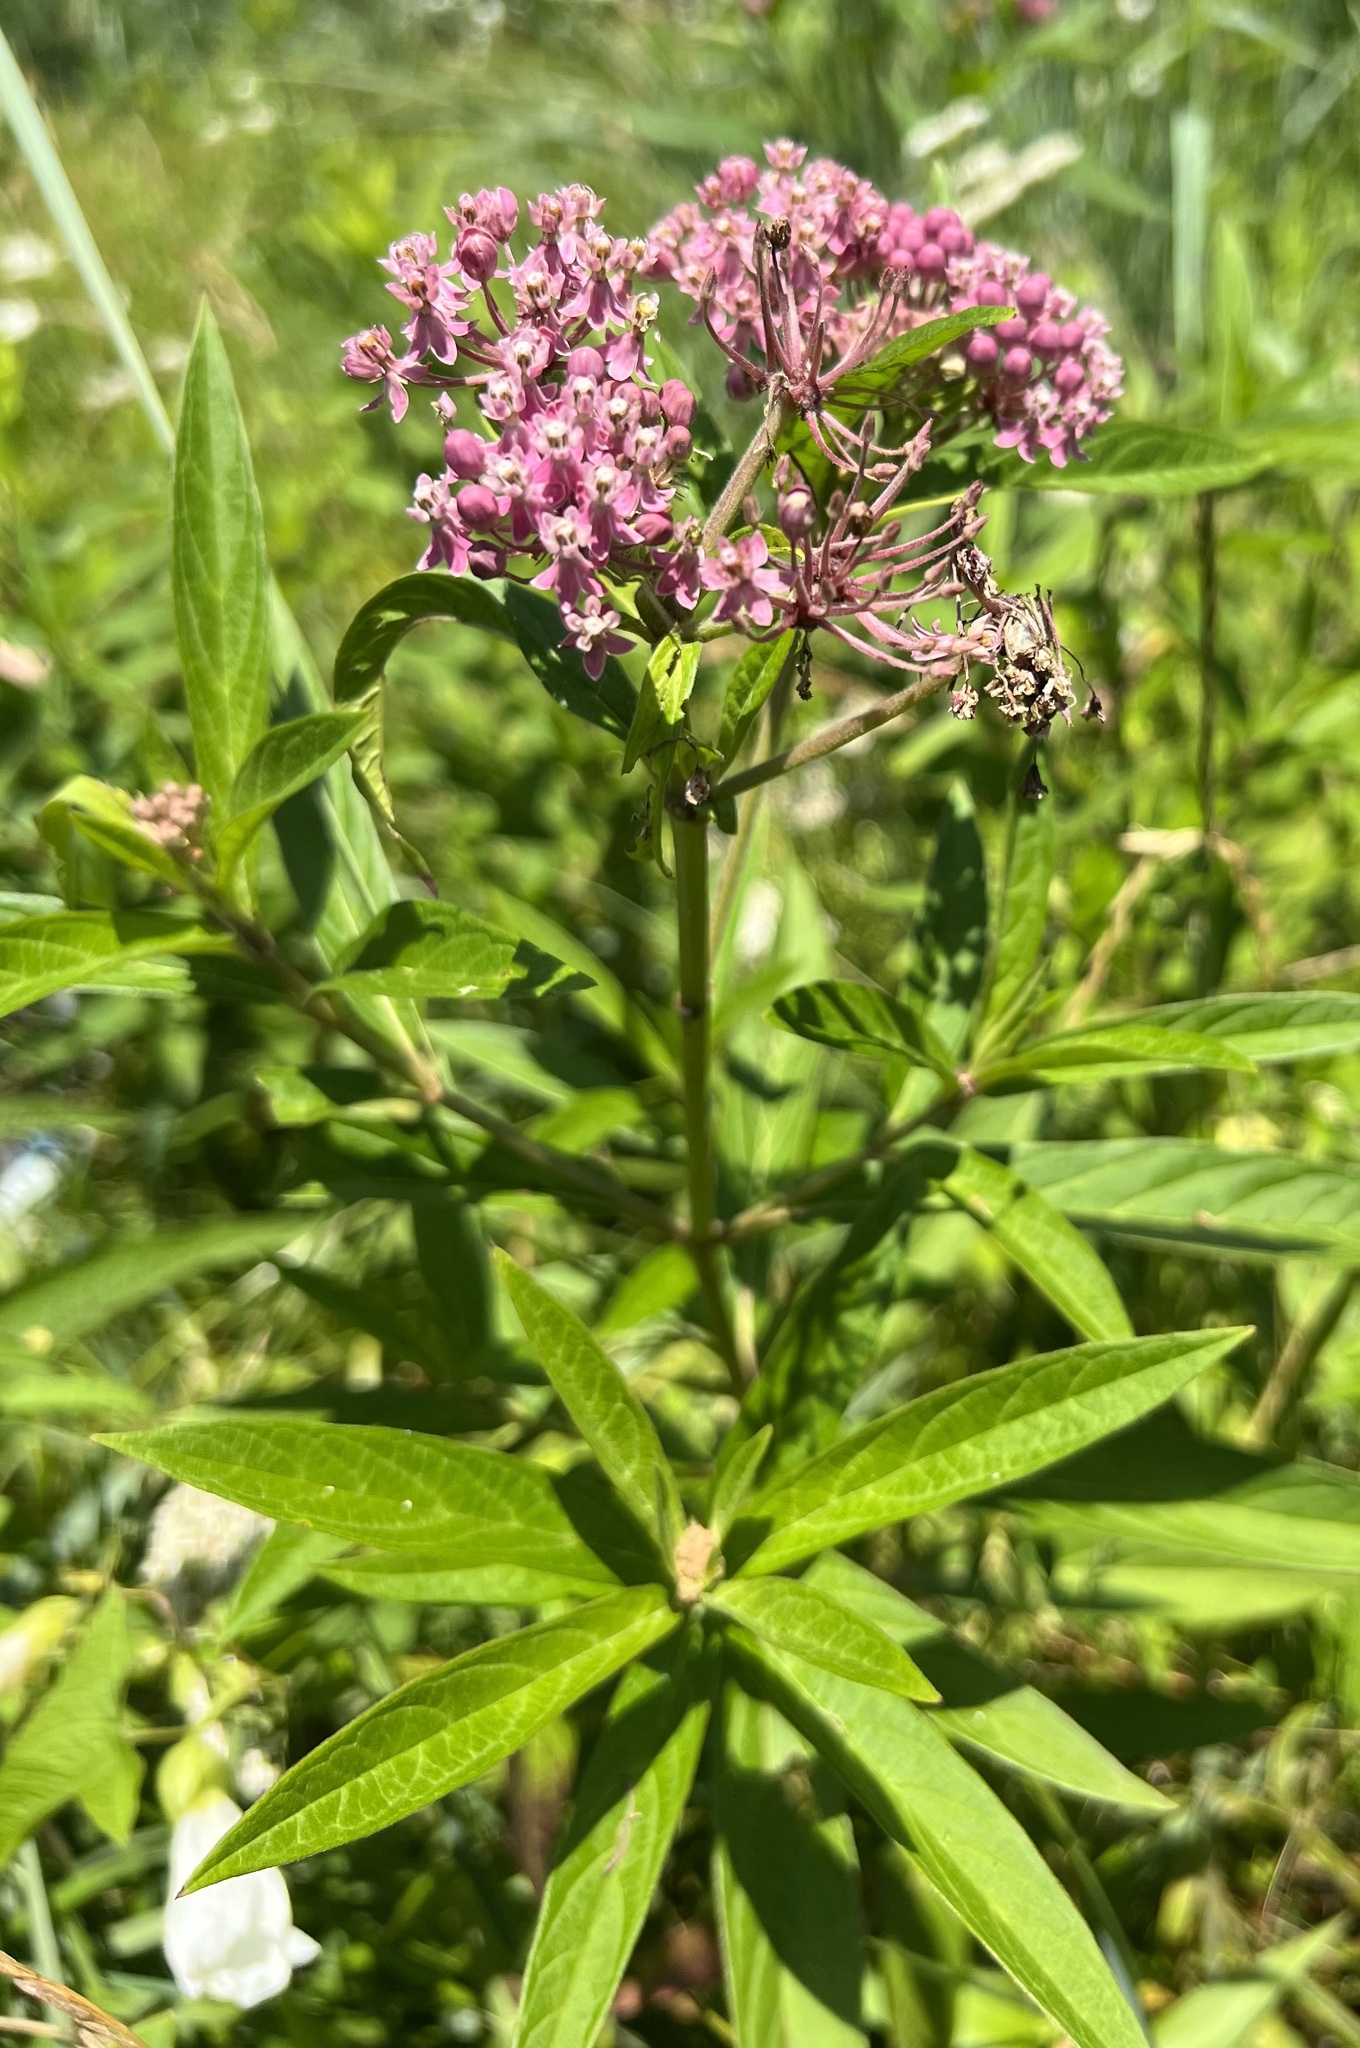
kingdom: Plantae
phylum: Tracheophyta
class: Magnoliopsida
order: Gentianales
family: Apocynaceae
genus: Asclepias
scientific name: Asclepias incarnata
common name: Swamp milkweed
